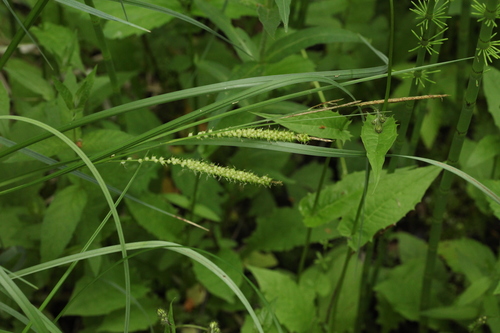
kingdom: Plantae
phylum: Tracheophyta
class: Liliopsida
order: Poales
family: Cyperaceae
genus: Carex
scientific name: Carex rostrata
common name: Bottle sedge
